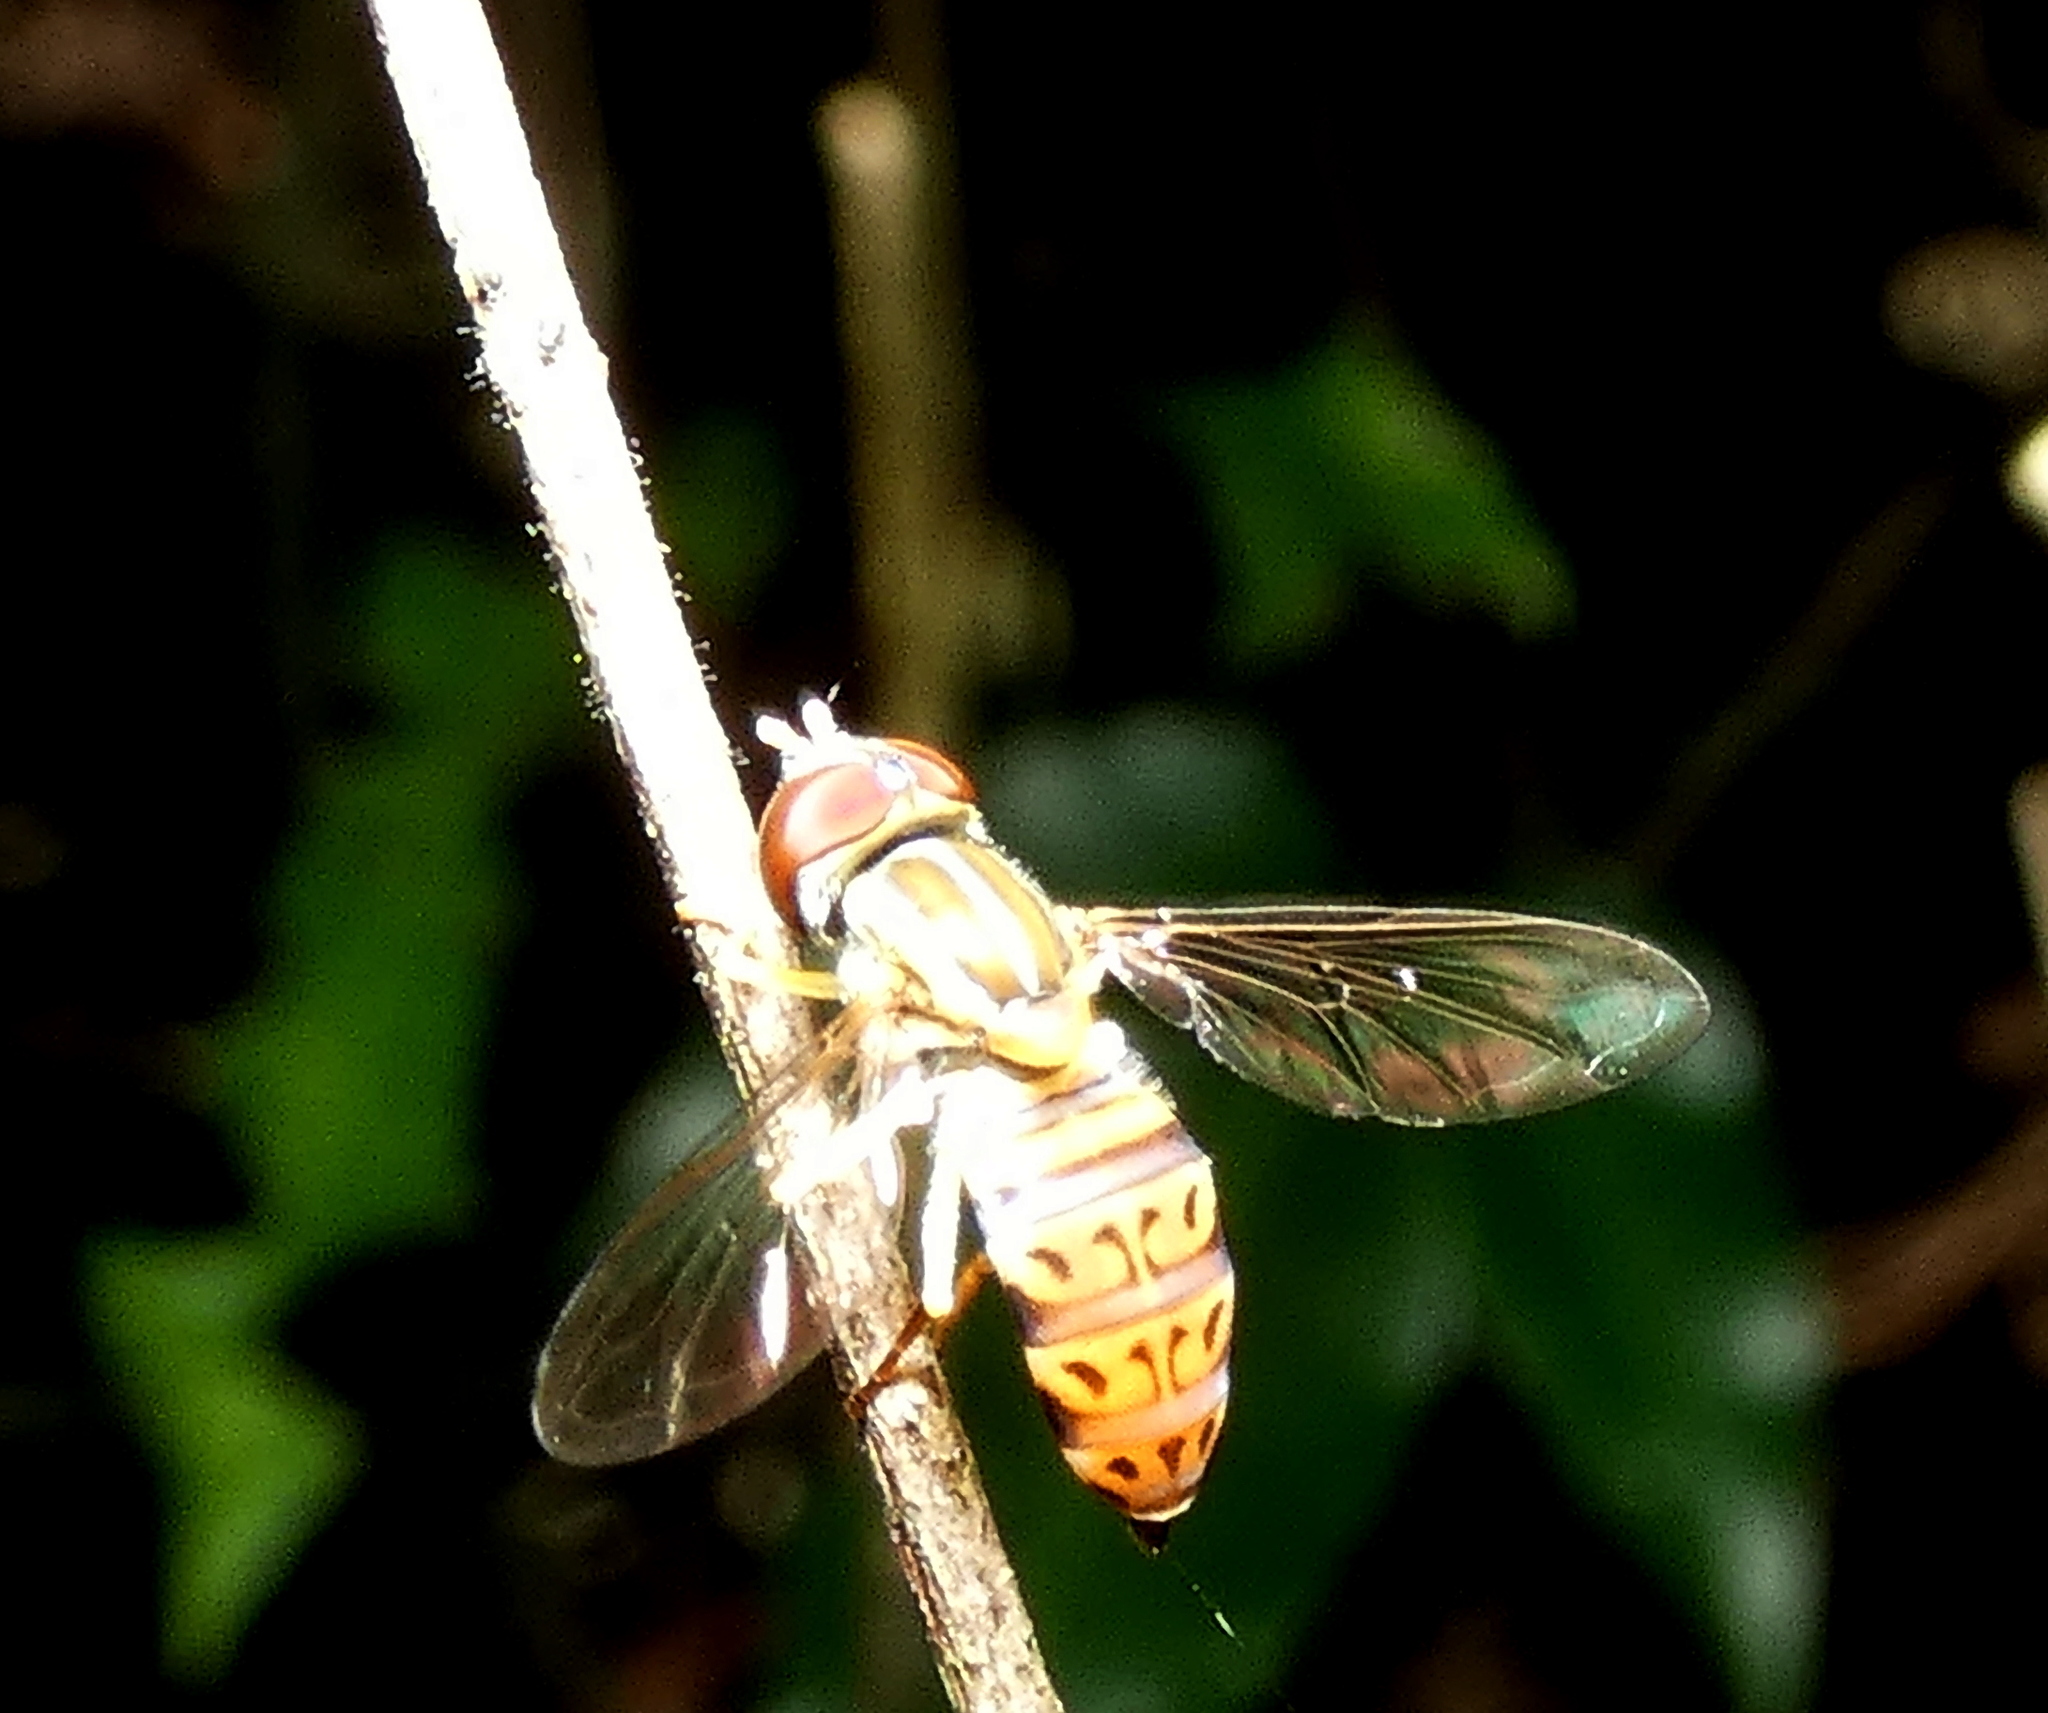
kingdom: Animalia
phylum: Arthropoda
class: Insecta
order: Diptera
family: Syrphidae
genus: Toxomerus
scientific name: Toxomerus pulchellus
